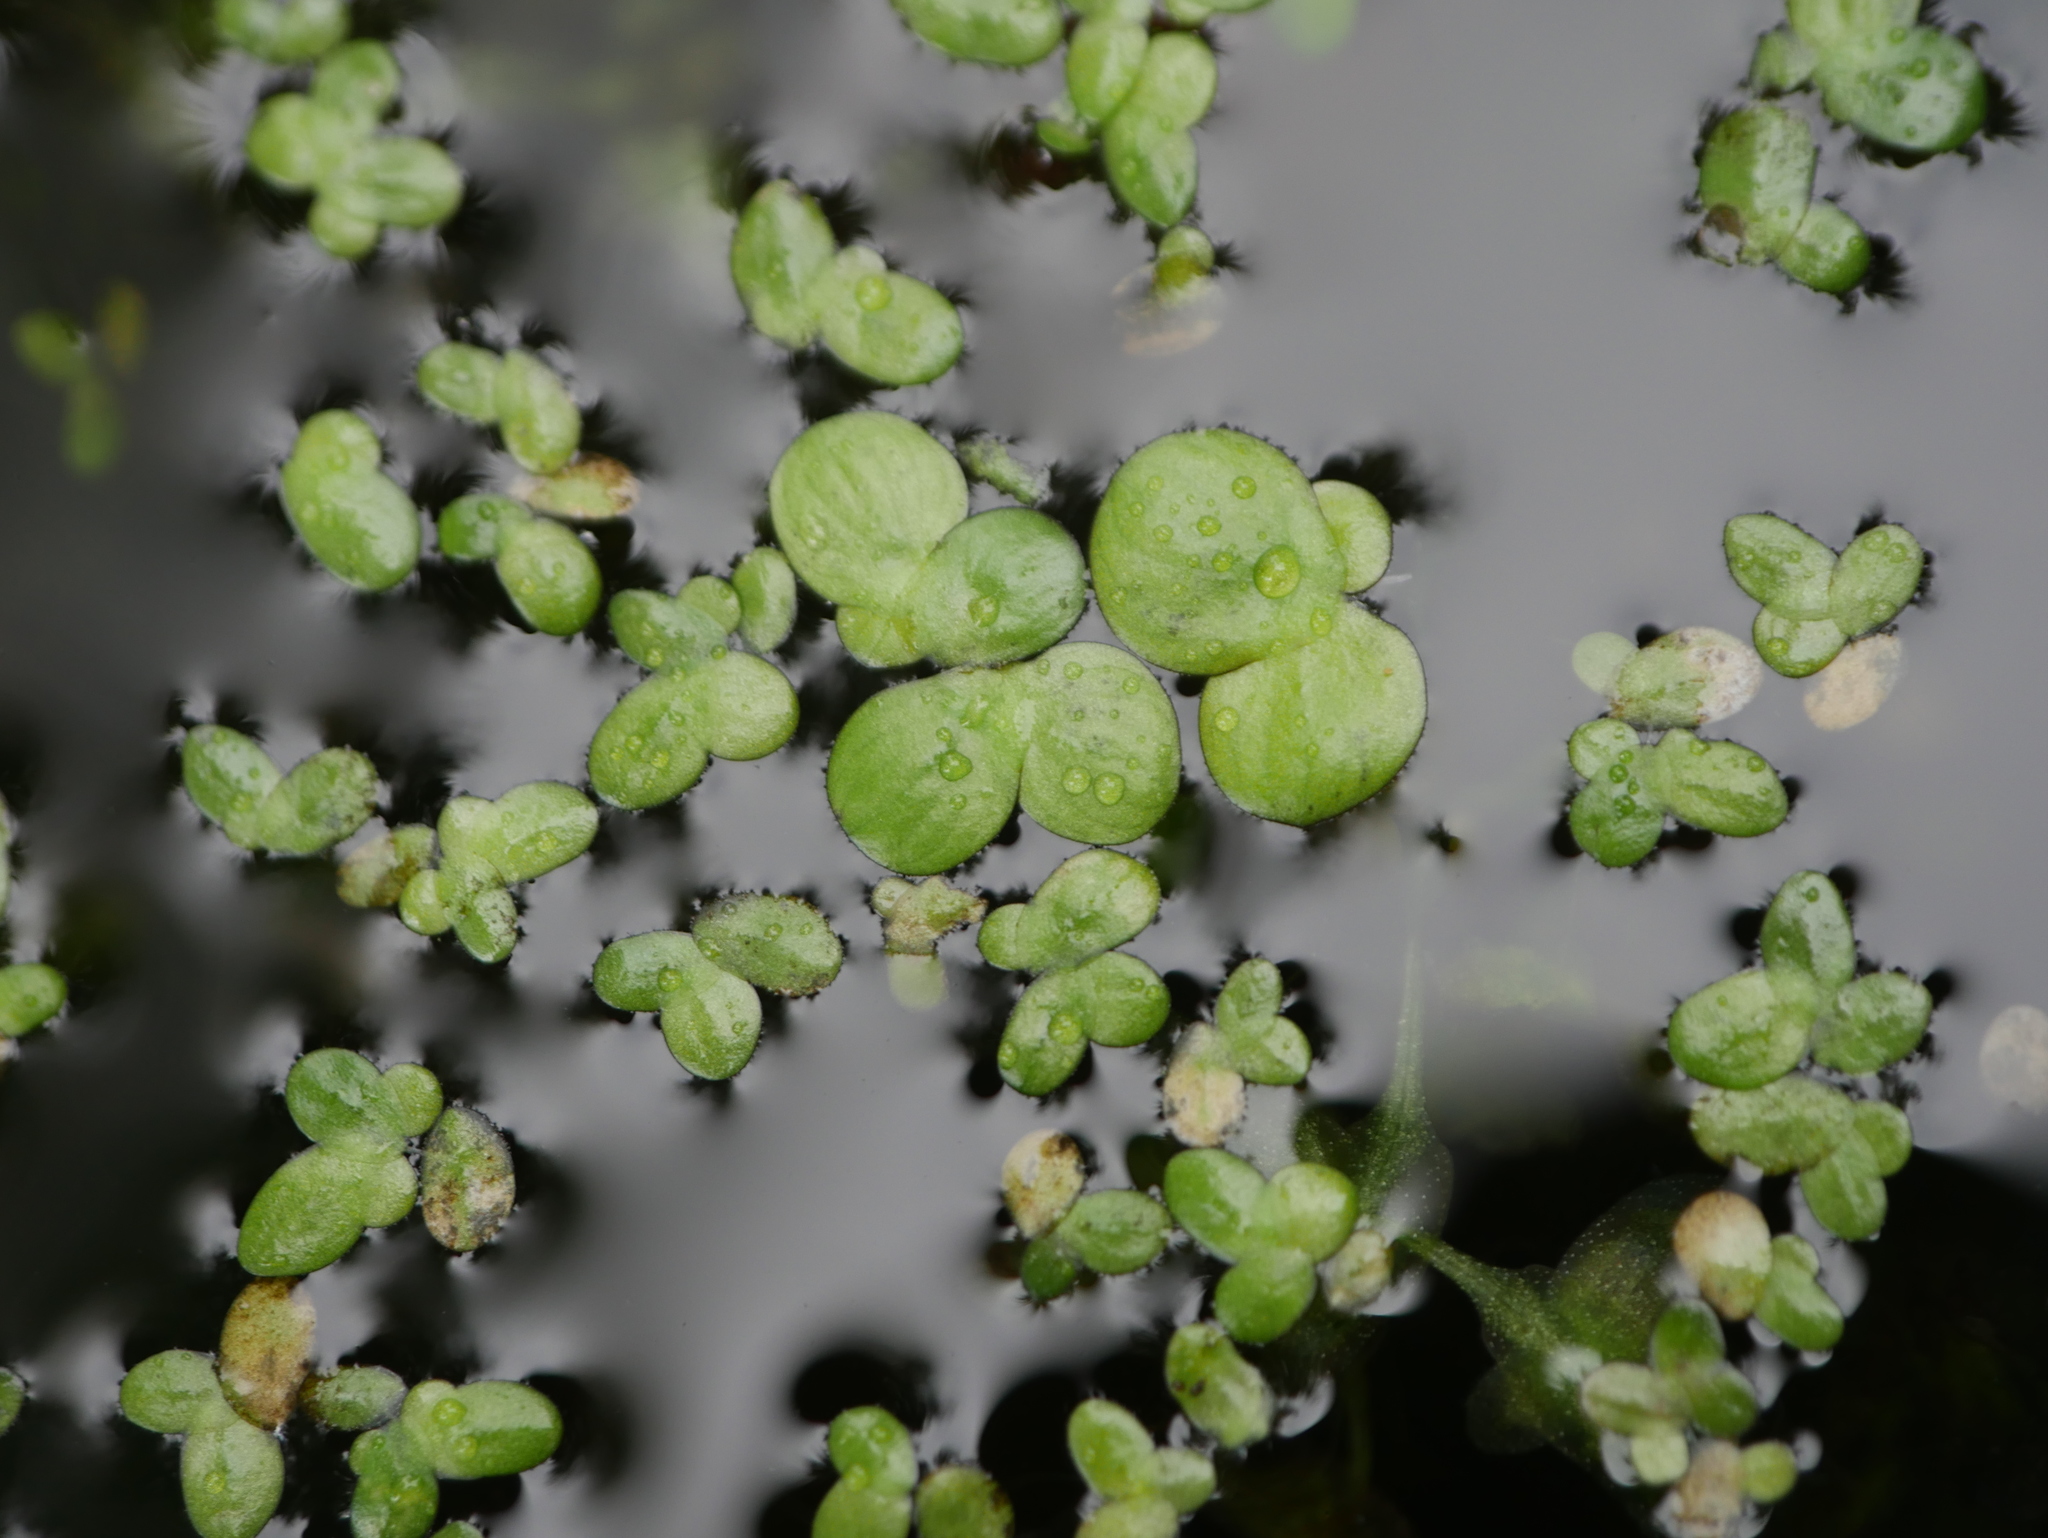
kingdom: Plantae
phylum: Tracheophyta
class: Liliopsida
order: Alismatales
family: Araceae
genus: Spirodela
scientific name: Spirodela polyrhiza
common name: Great duckweed
